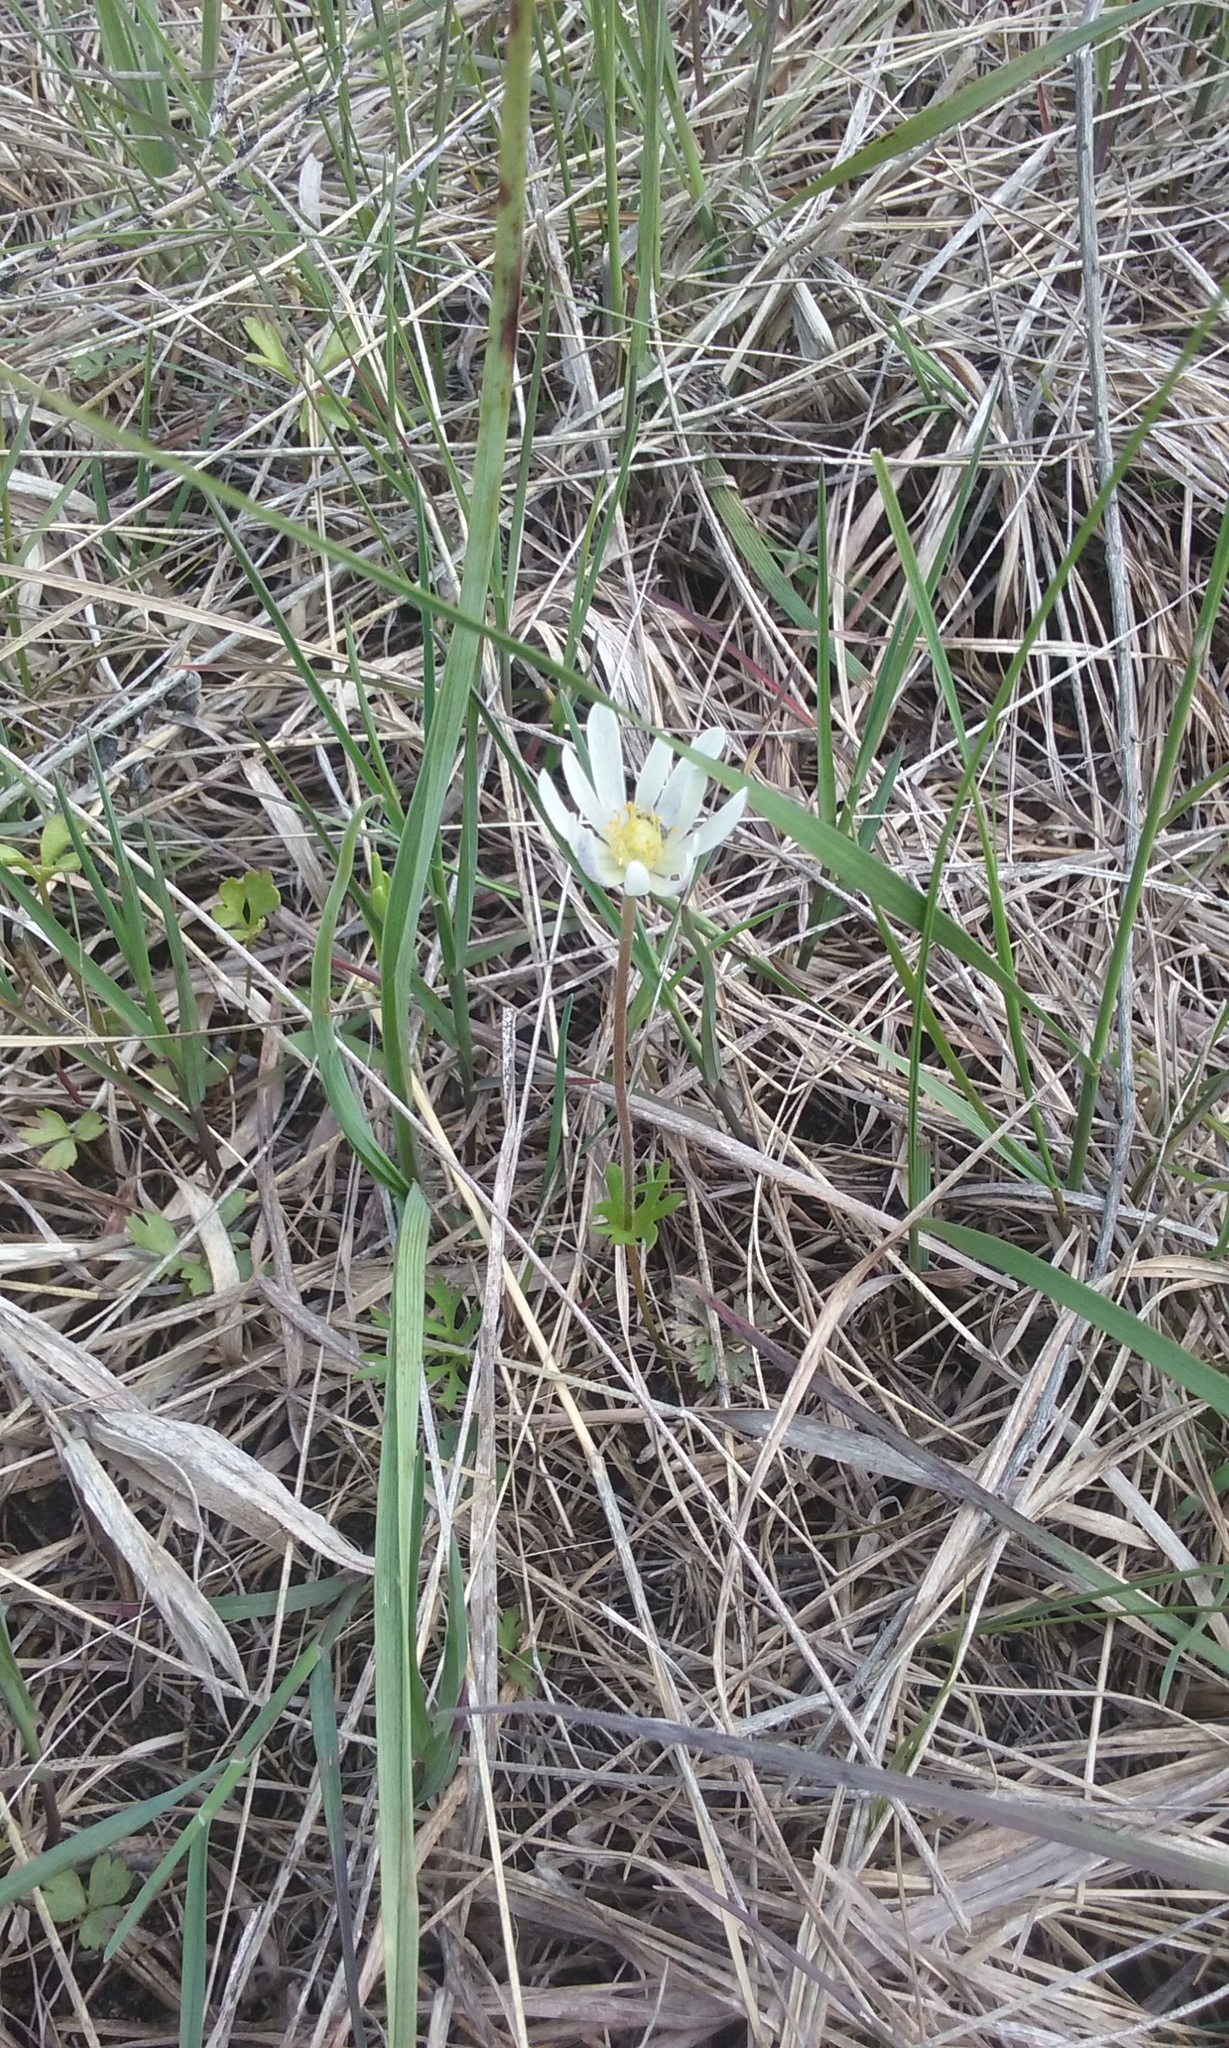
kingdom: Plantae
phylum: Tracheophyta
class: Magnoliopsida
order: Ranunculales
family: Ranunculaceae
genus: Anemone
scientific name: Anemone caroliniana
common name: Carolina anemone
